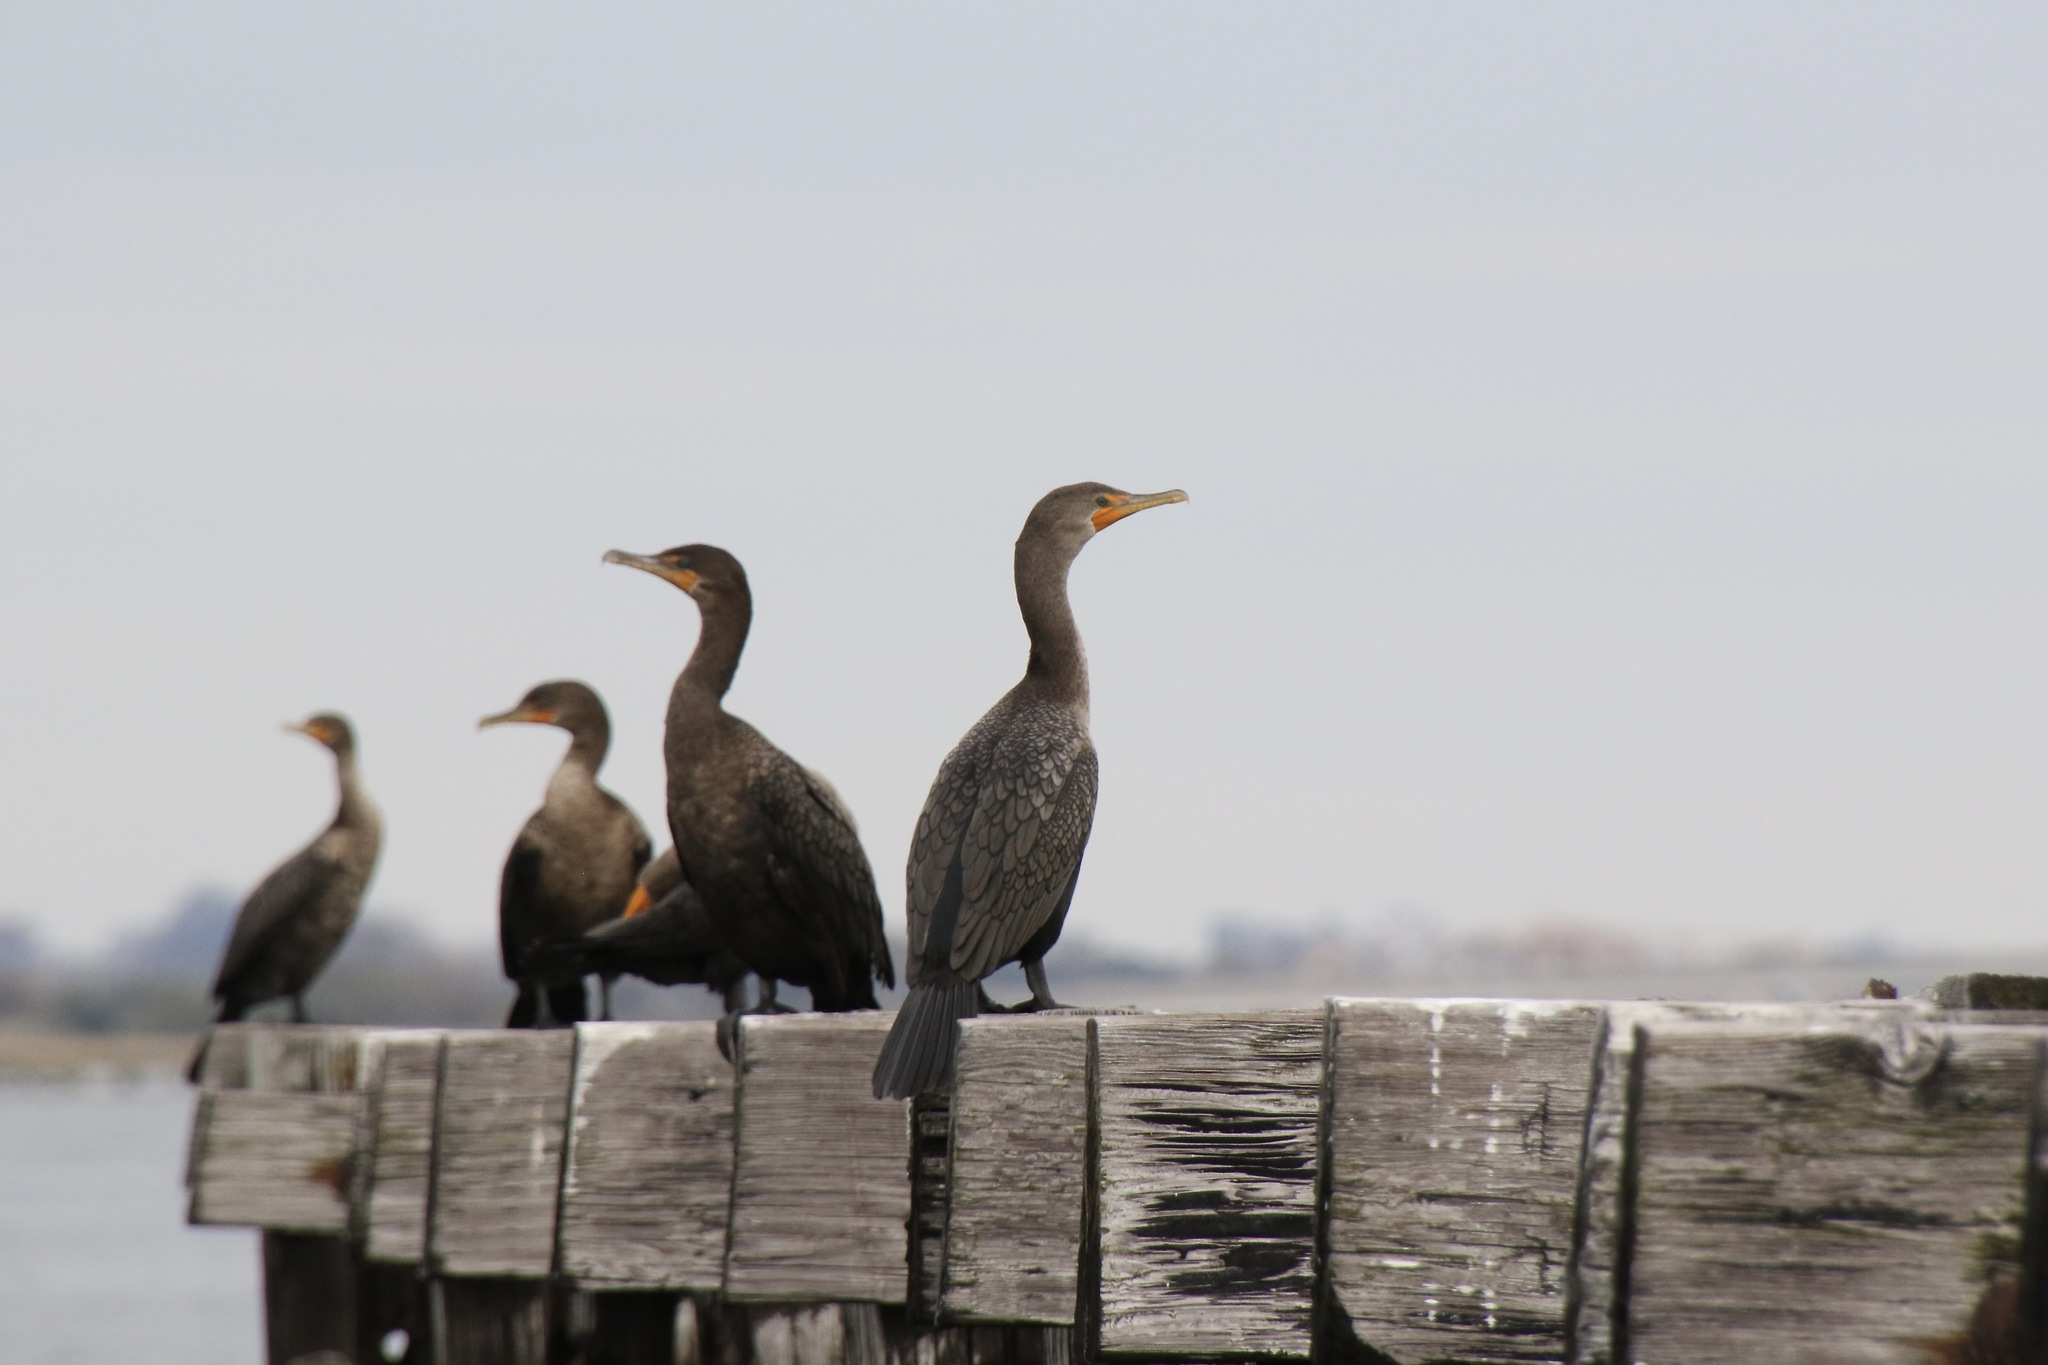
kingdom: Animalia
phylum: Chordata
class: Aves
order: Suliformes
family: Phalacrocoracidae
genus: Phalacrocorax
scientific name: Phalacrocorax auritus
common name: Double-crested cormorant
